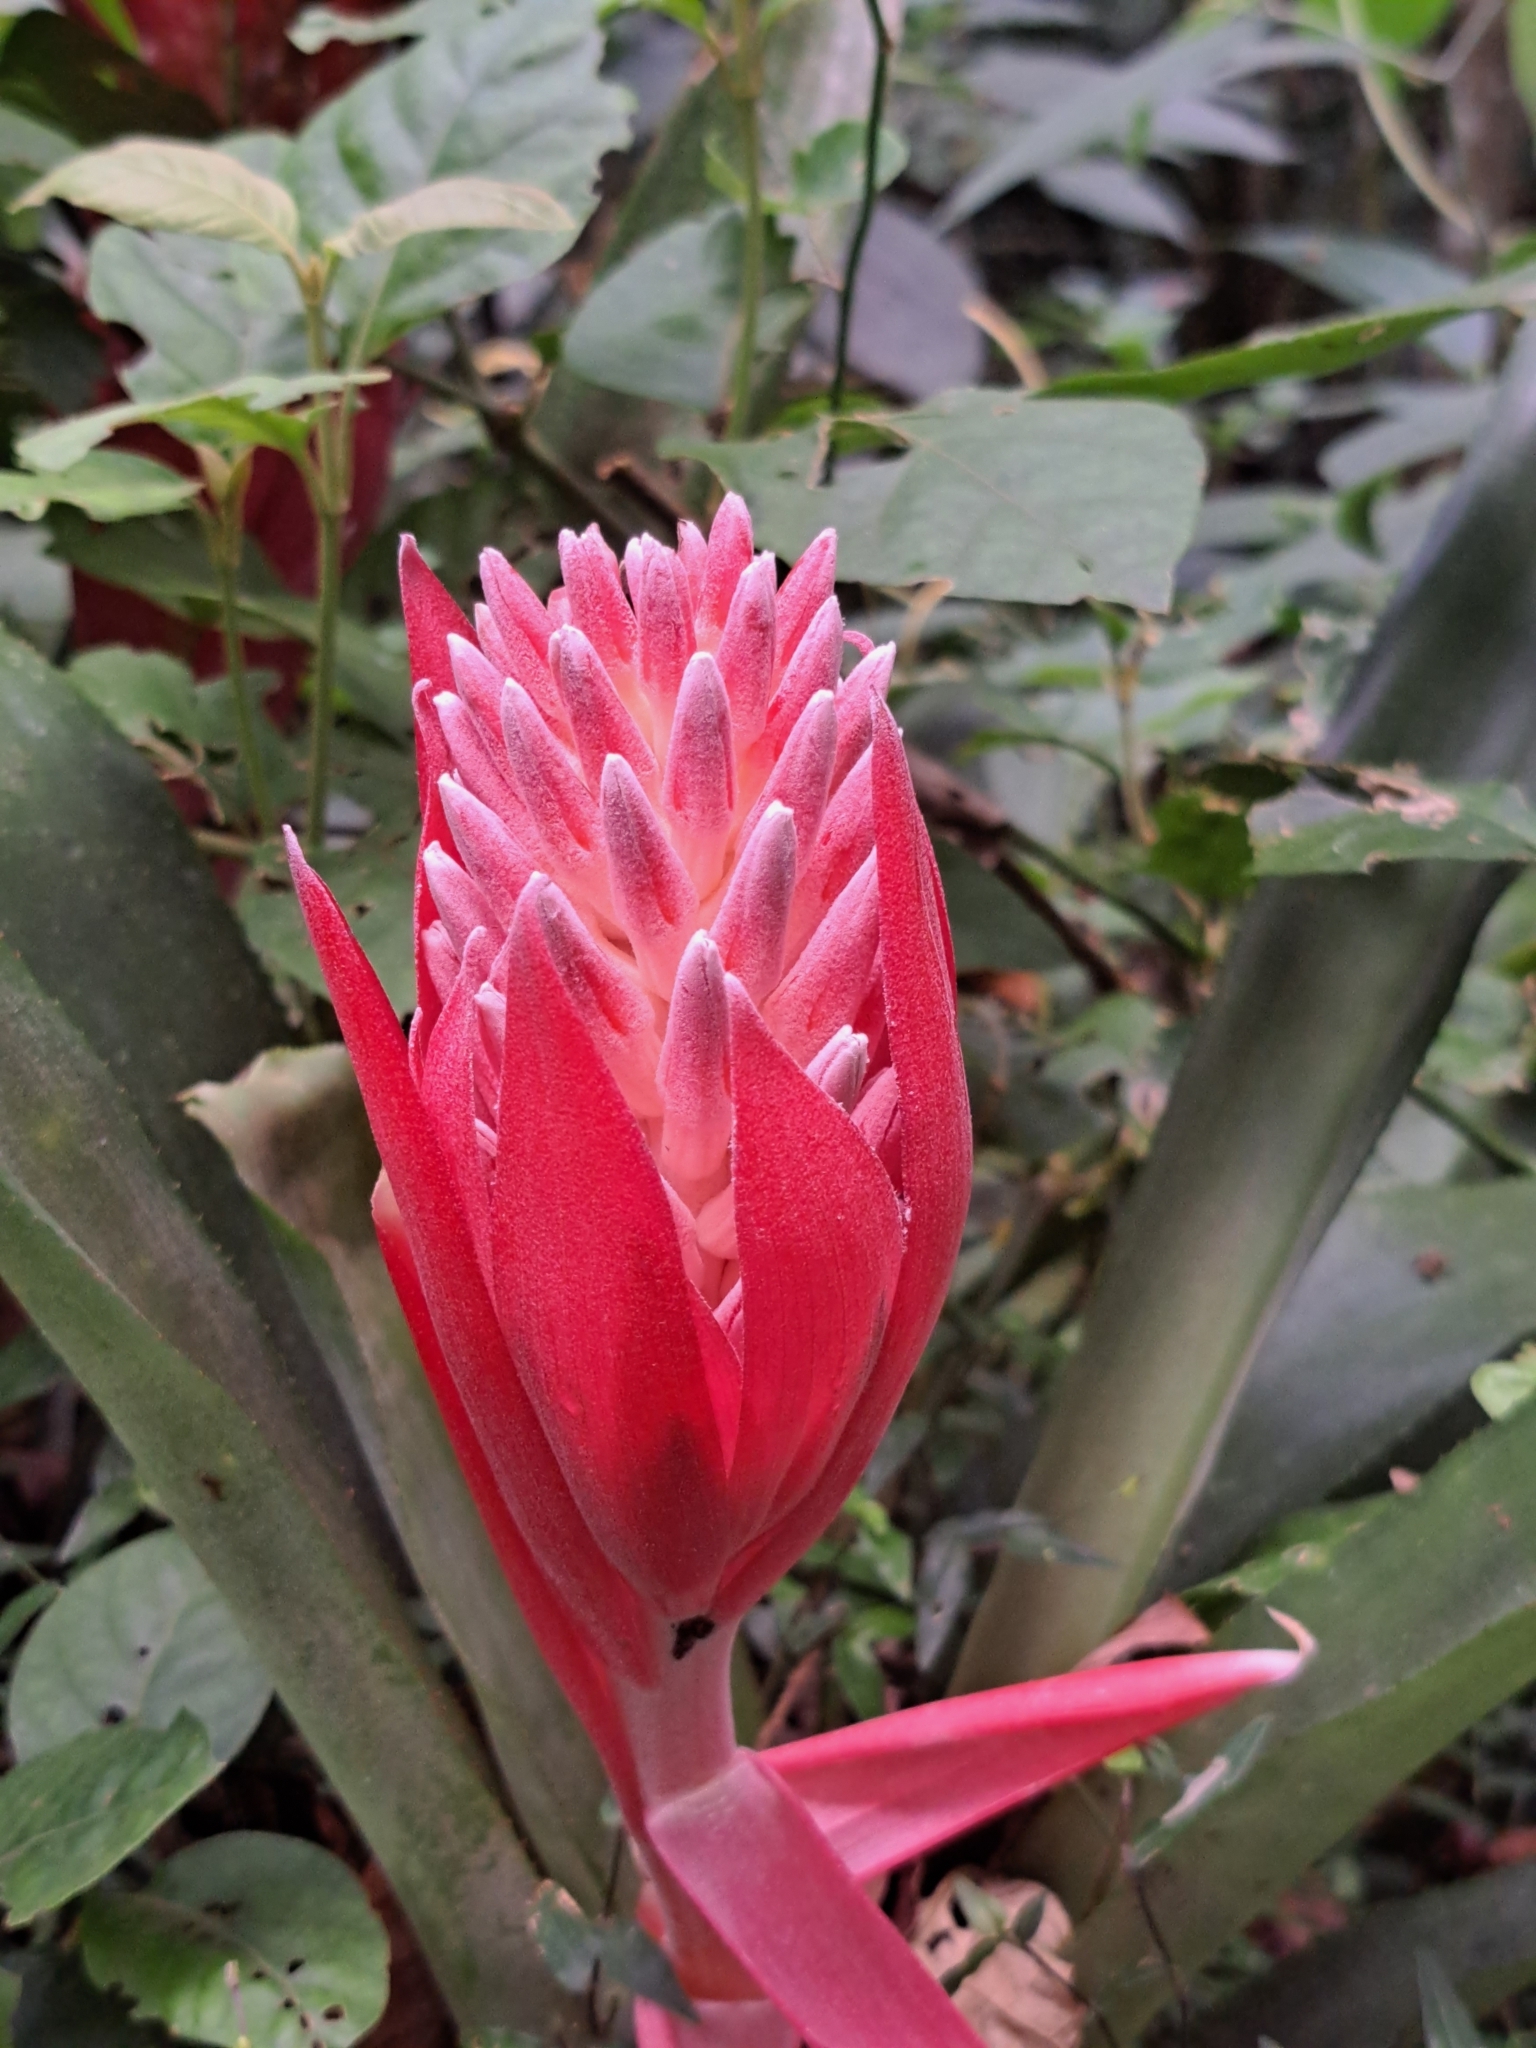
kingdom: Plantae
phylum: Tracheophyta
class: Liliopsida
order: Poales
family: Bromeliaceae
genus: Billbergia
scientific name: Billbergia pyramidalis
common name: Foolproofplant
